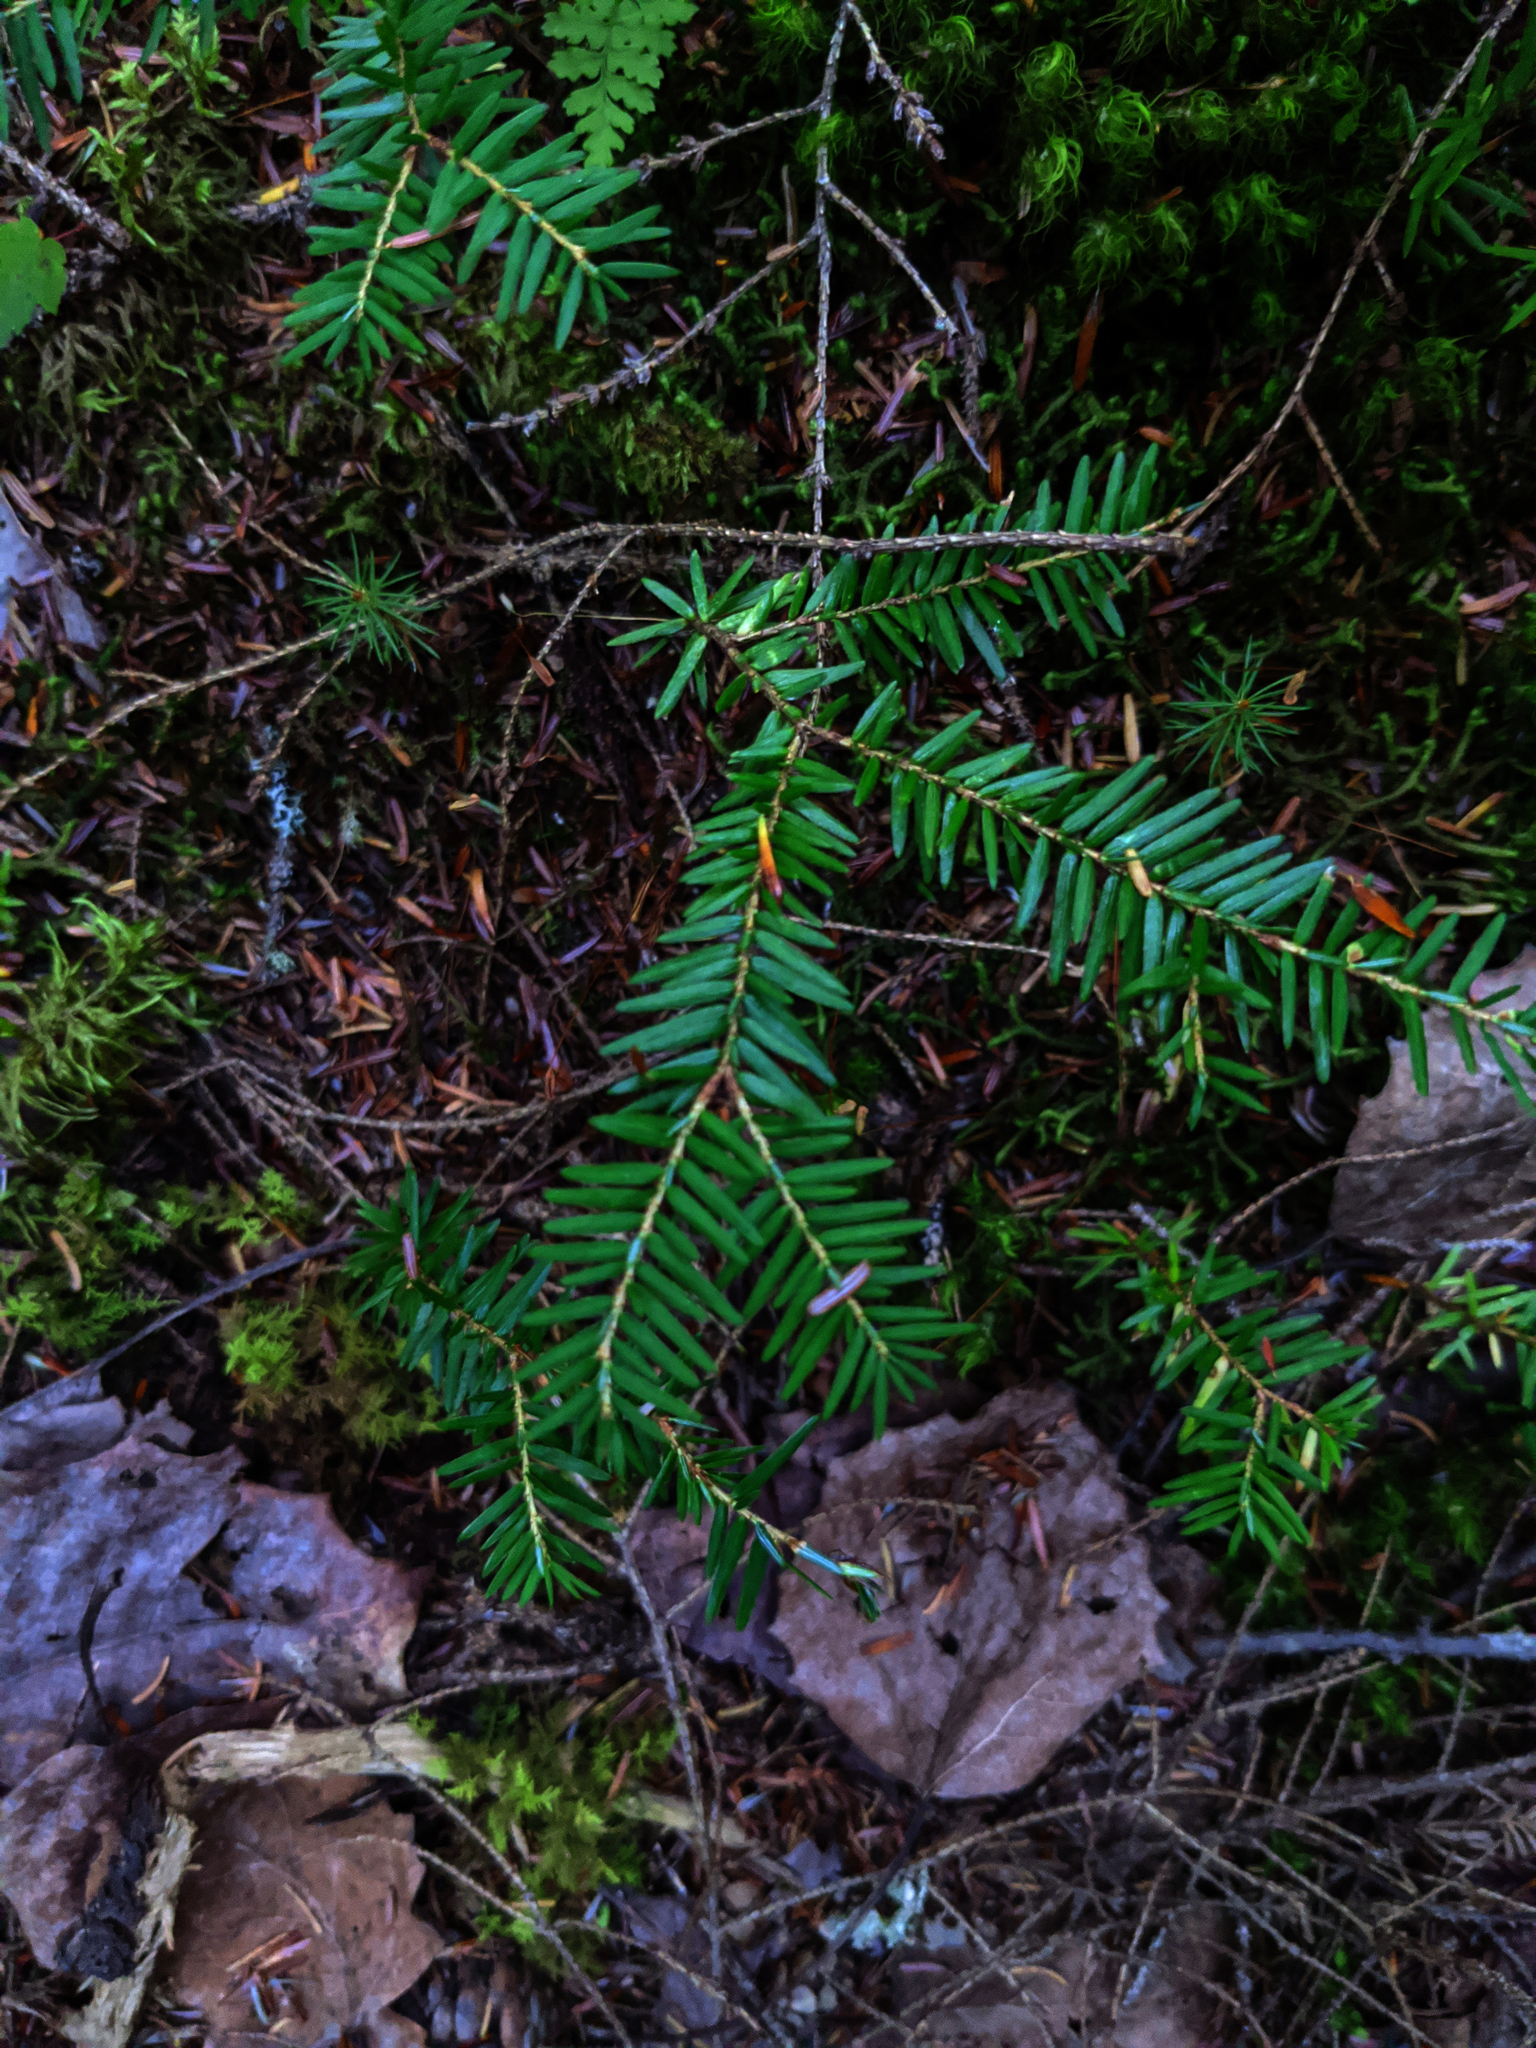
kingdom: Plantae
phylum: Tracheophyta
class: Pinopsida
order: Pinales
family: Pinaceae
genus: Tsuga
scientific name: Tsuga canadensis
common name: Eastern hemlock
